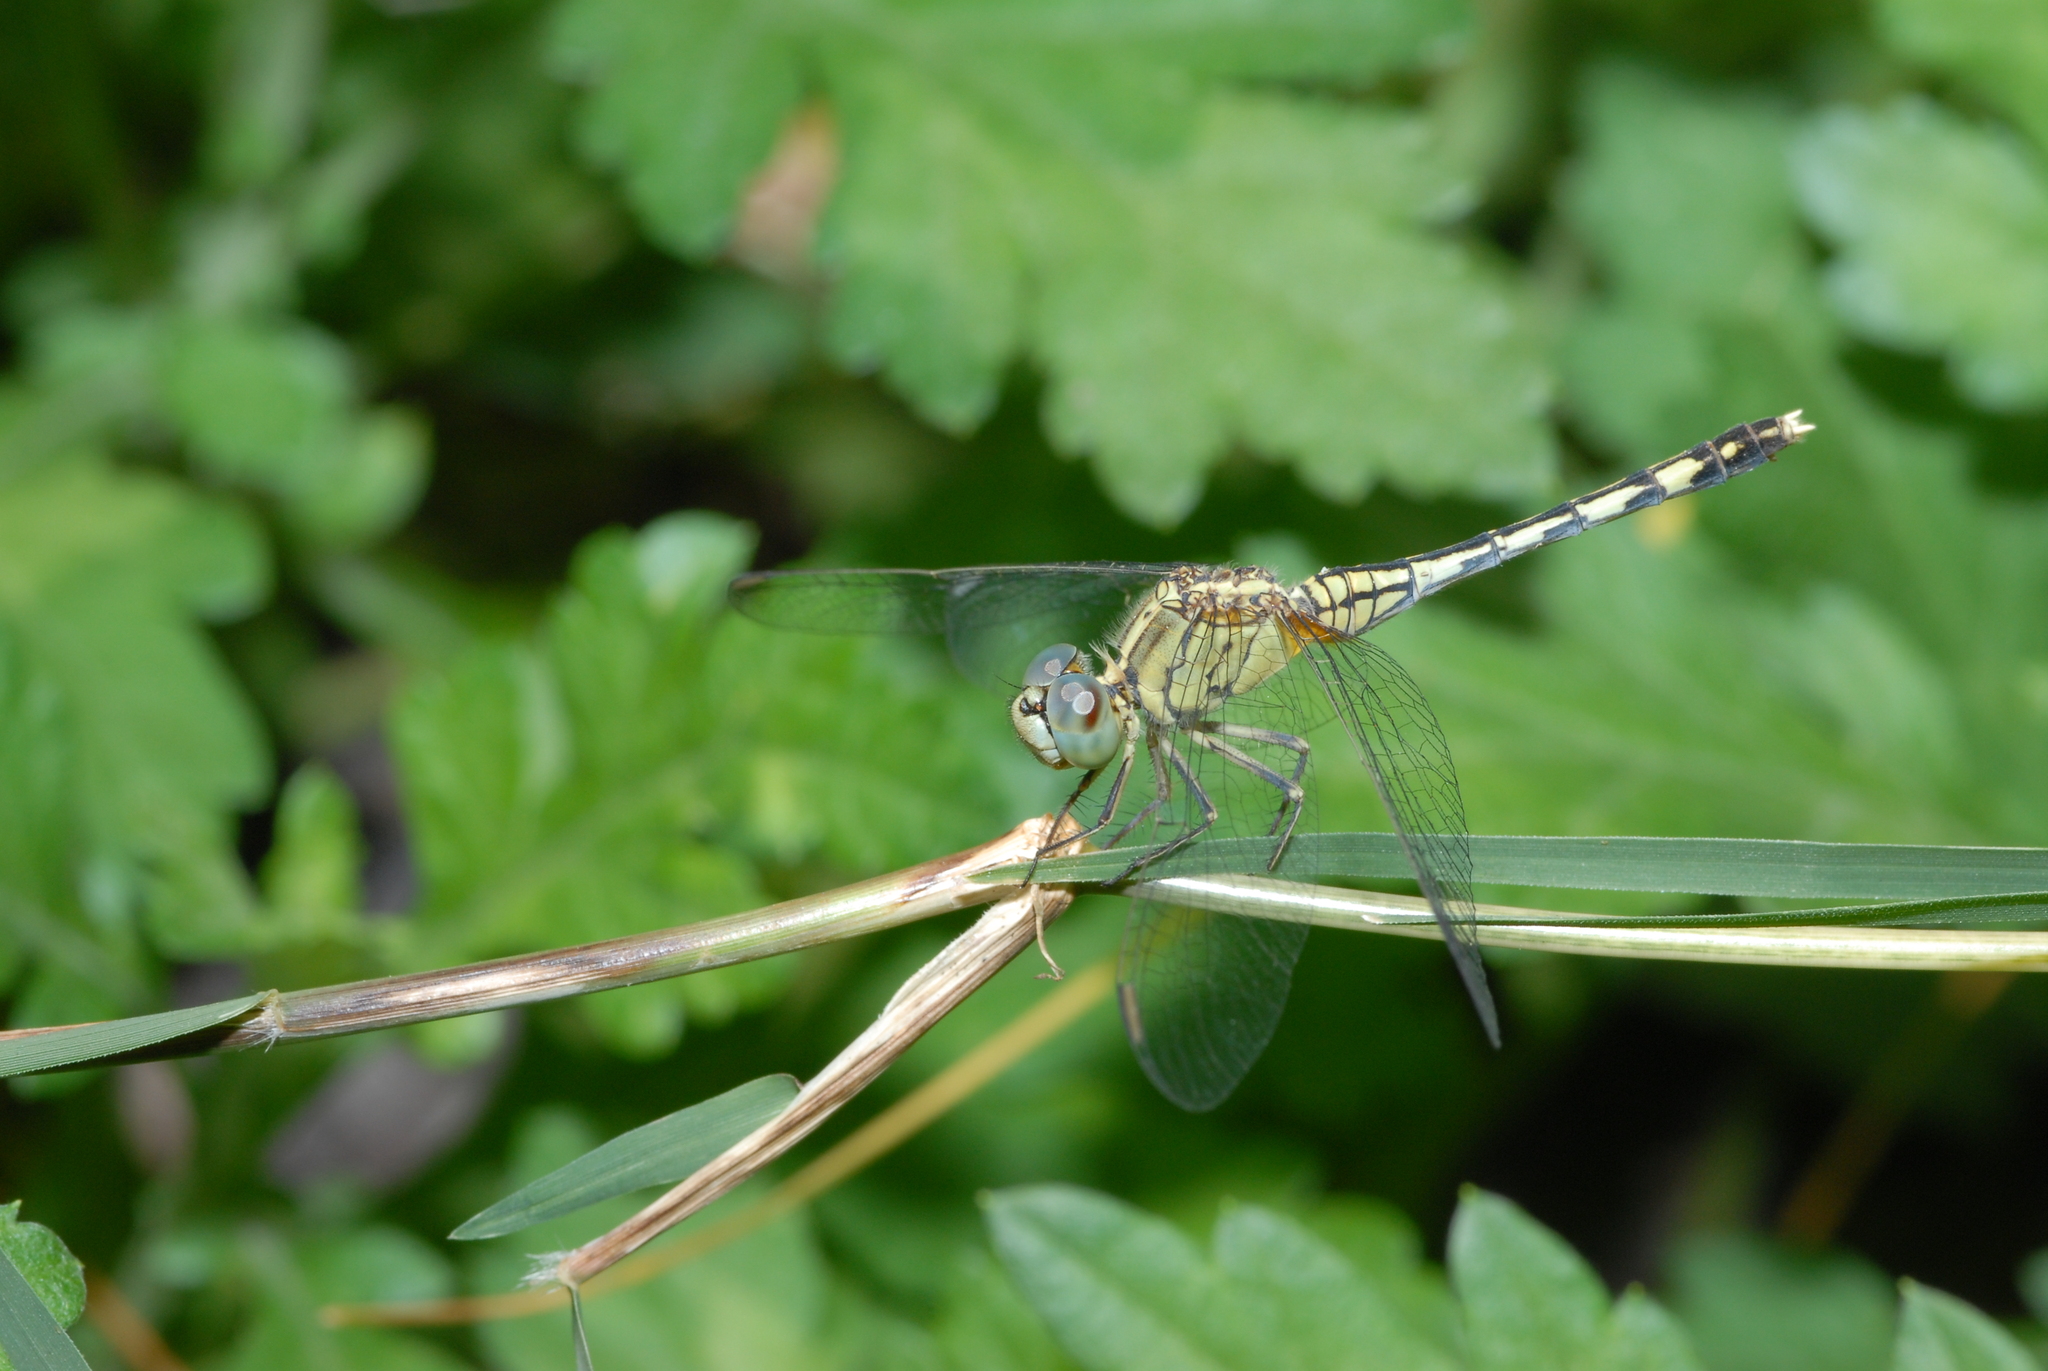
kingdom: Animalia
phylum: Arthropoda
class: Insecta
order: Odonata
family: Libellulidae
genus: Diplacodes
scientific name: Diplacodes trivialis
